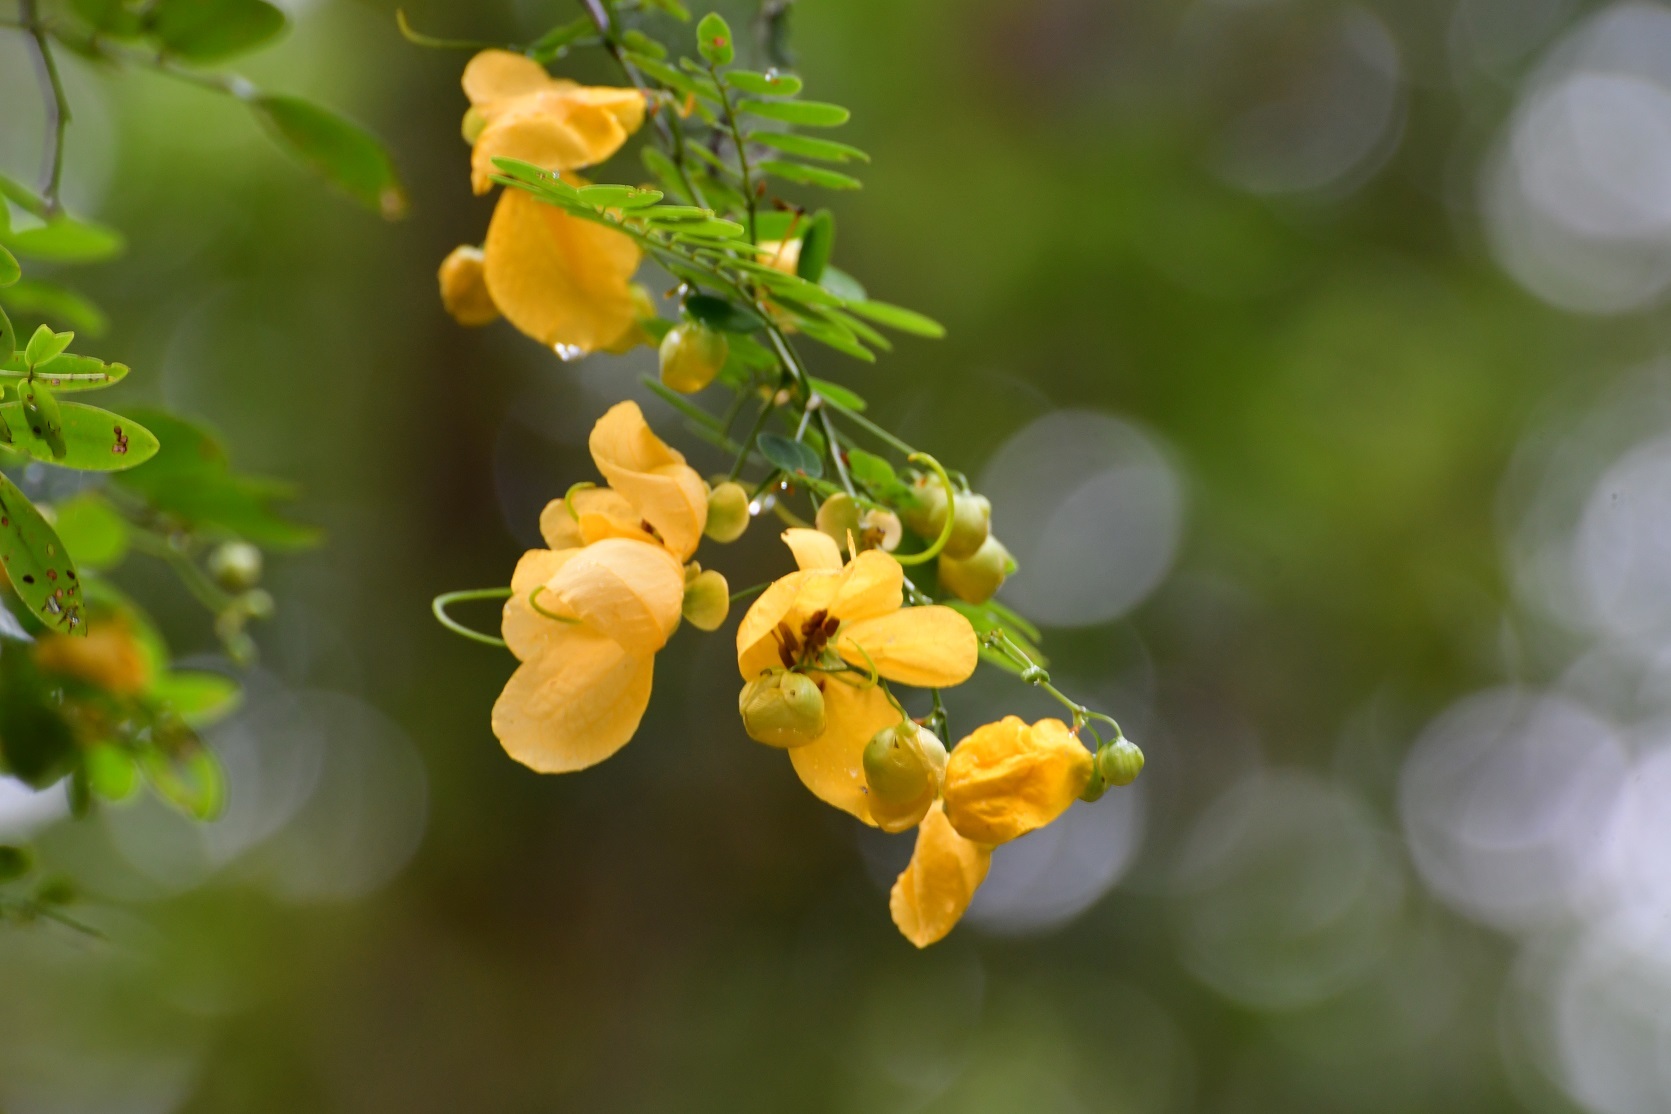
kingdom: Plantae
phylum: Tracheophyta
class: Magnoliopsida
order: Fabales
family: Fabaceae
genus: Senna
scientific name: Senna pallida
